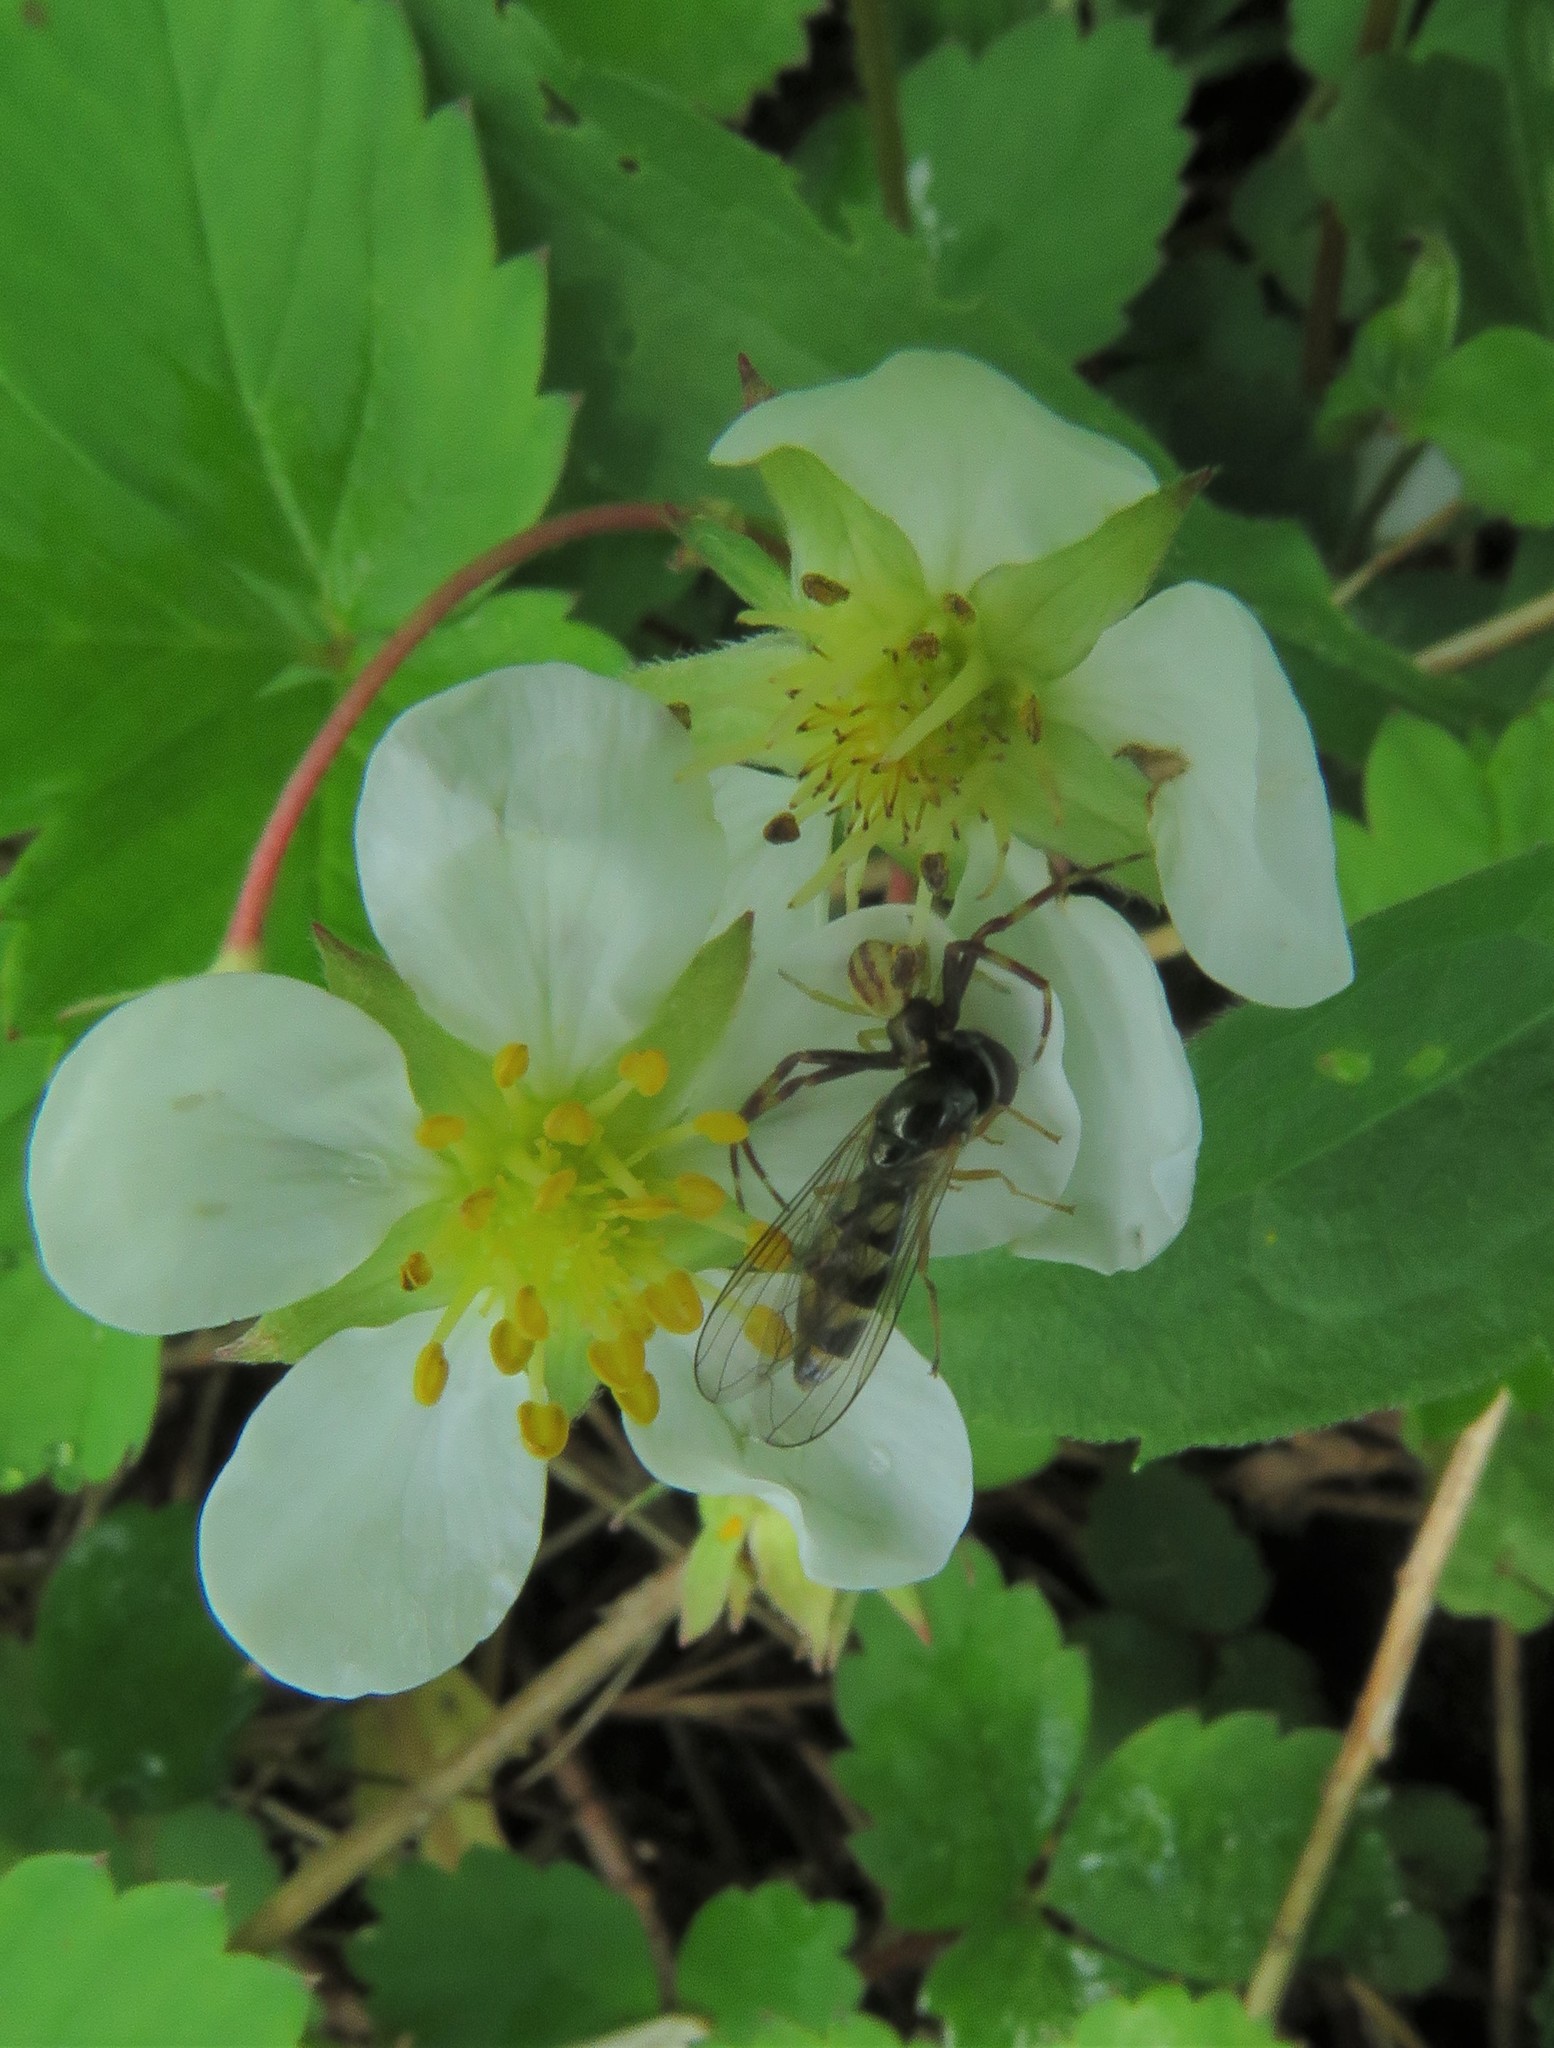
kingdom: Animalia
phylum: Arthropoda
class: Arachnida
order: Araneae
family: Thomisidae
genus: Misumena
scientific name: Misumena vatia
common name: Goldenrod crab spider
